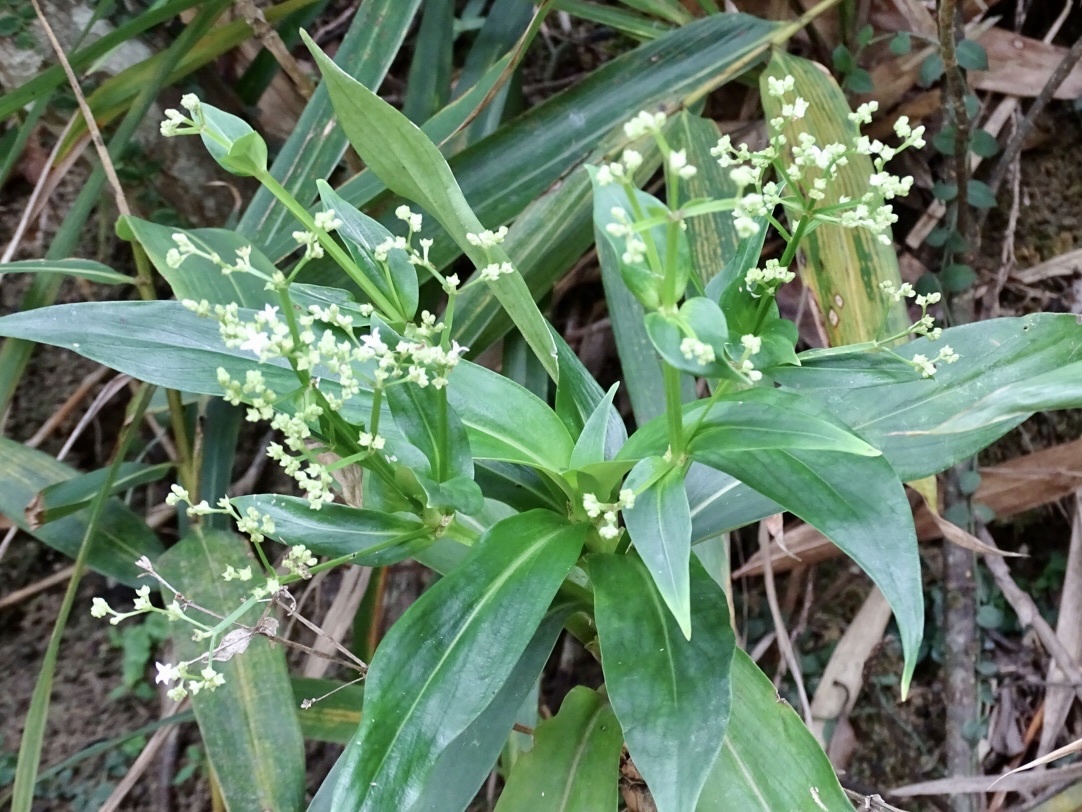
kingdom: Plantae
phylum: Tracheophyta
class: Magnoliopsida
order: Gentianales
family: Rubiaceae
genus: Hedyotis
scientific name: Hedyotis acutangula
